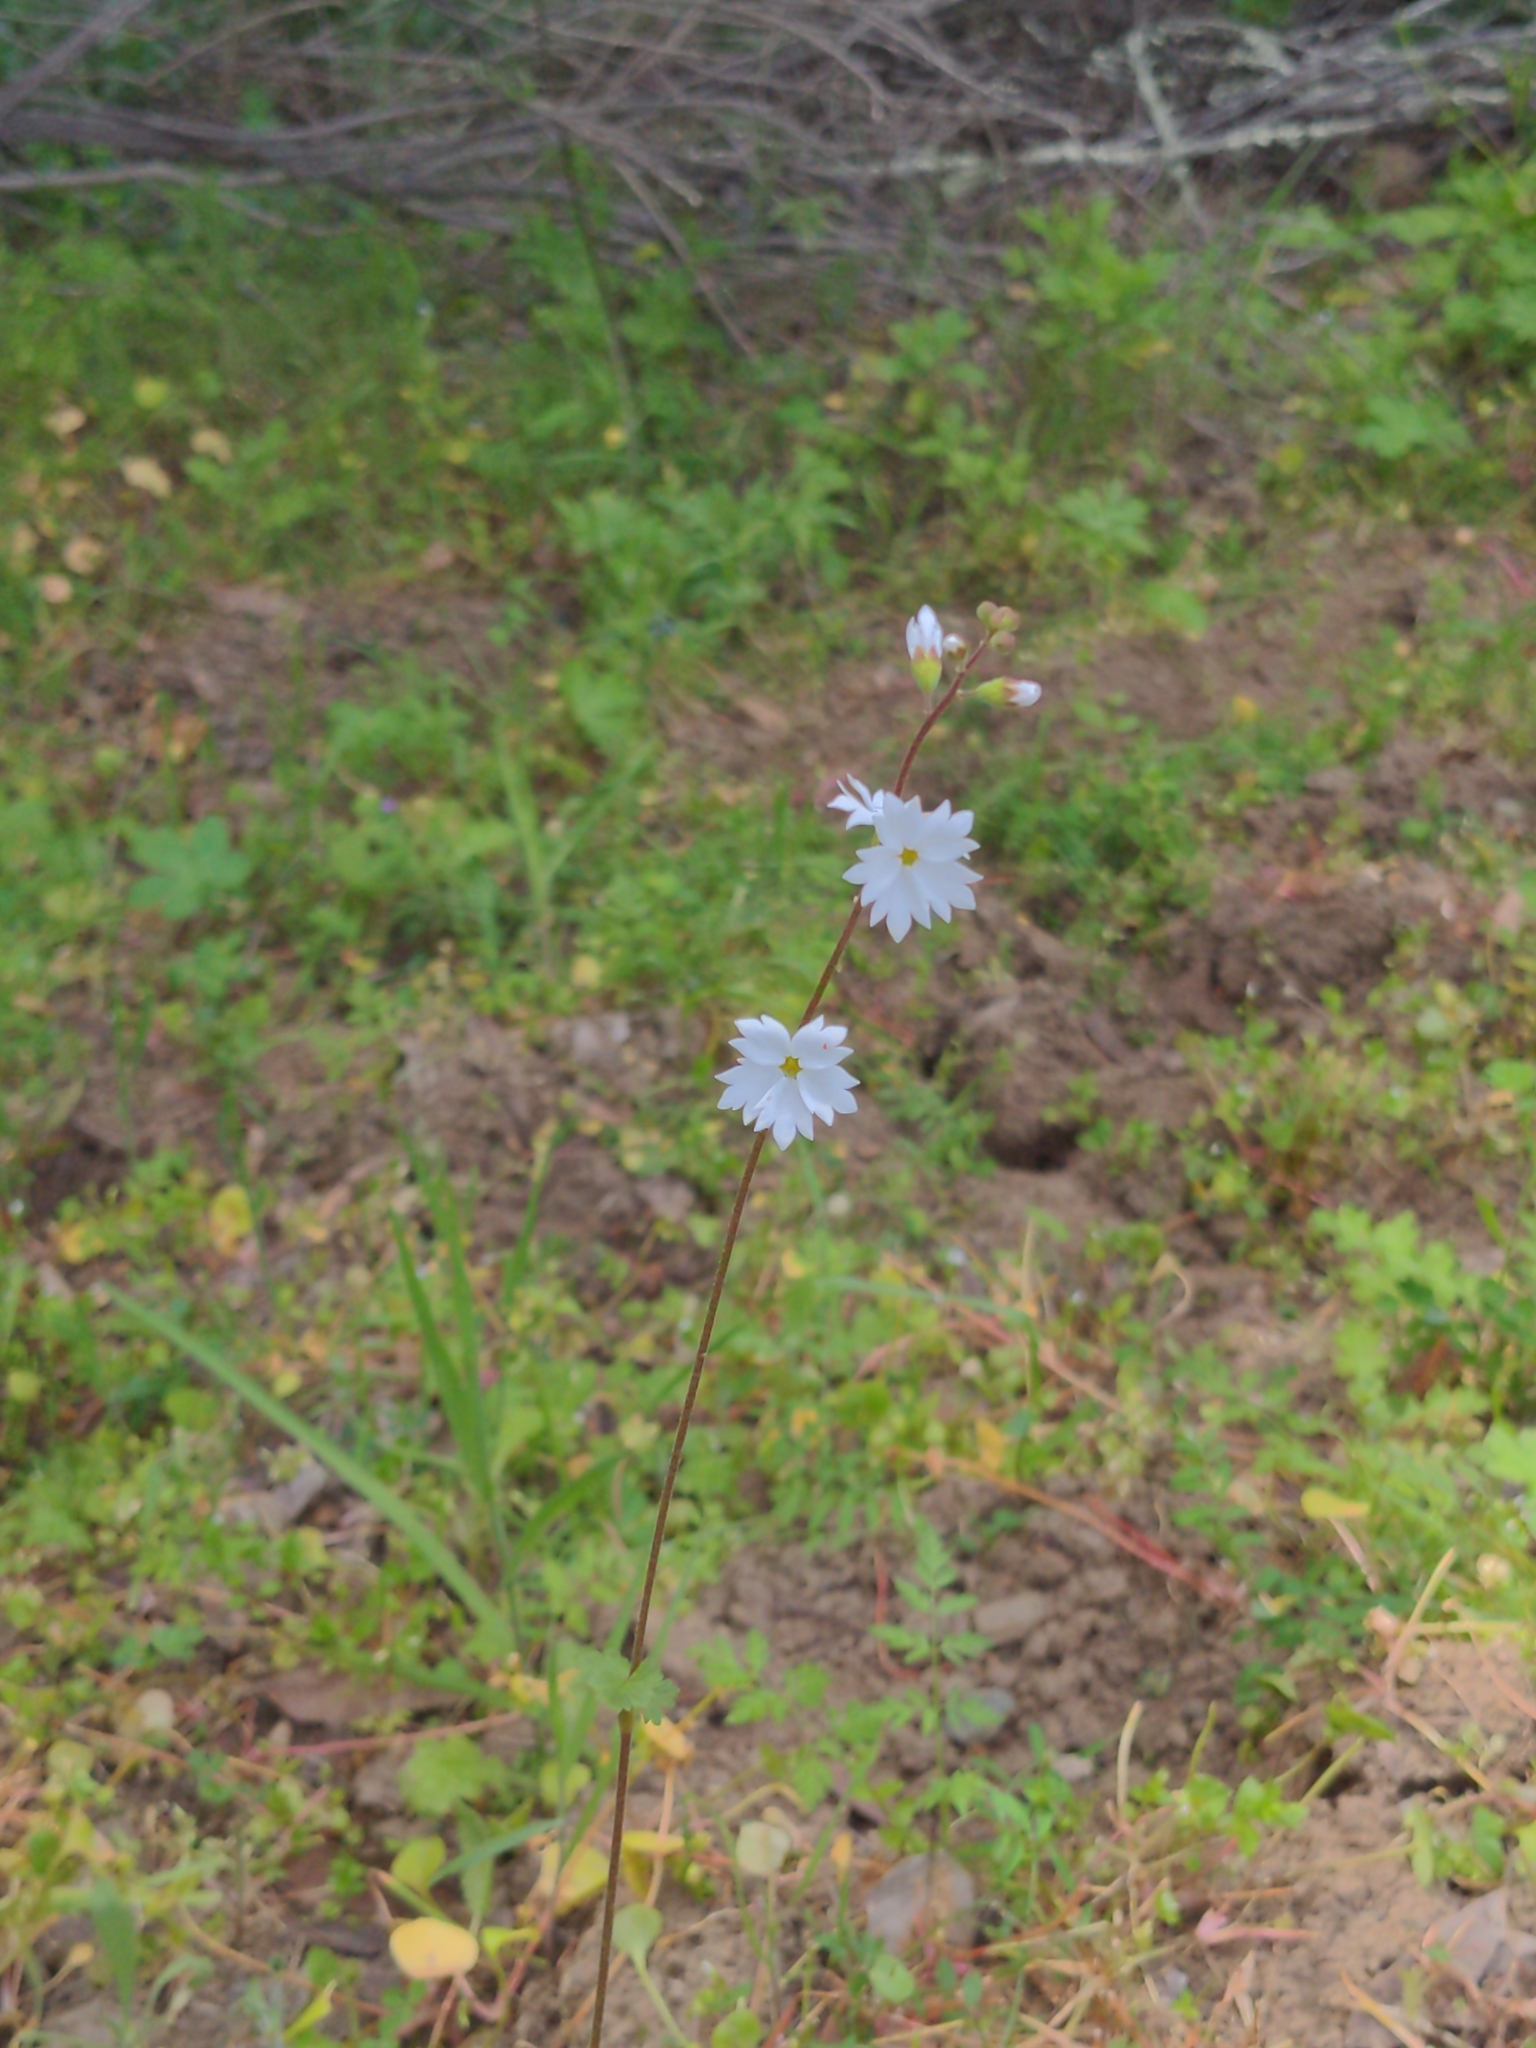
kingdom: Plantae
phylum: Tracheophyta
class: Magnoliopsida
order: Saxifragales
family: Saxifragaceae
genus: Lithophragma
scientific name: Lithophragma affine
